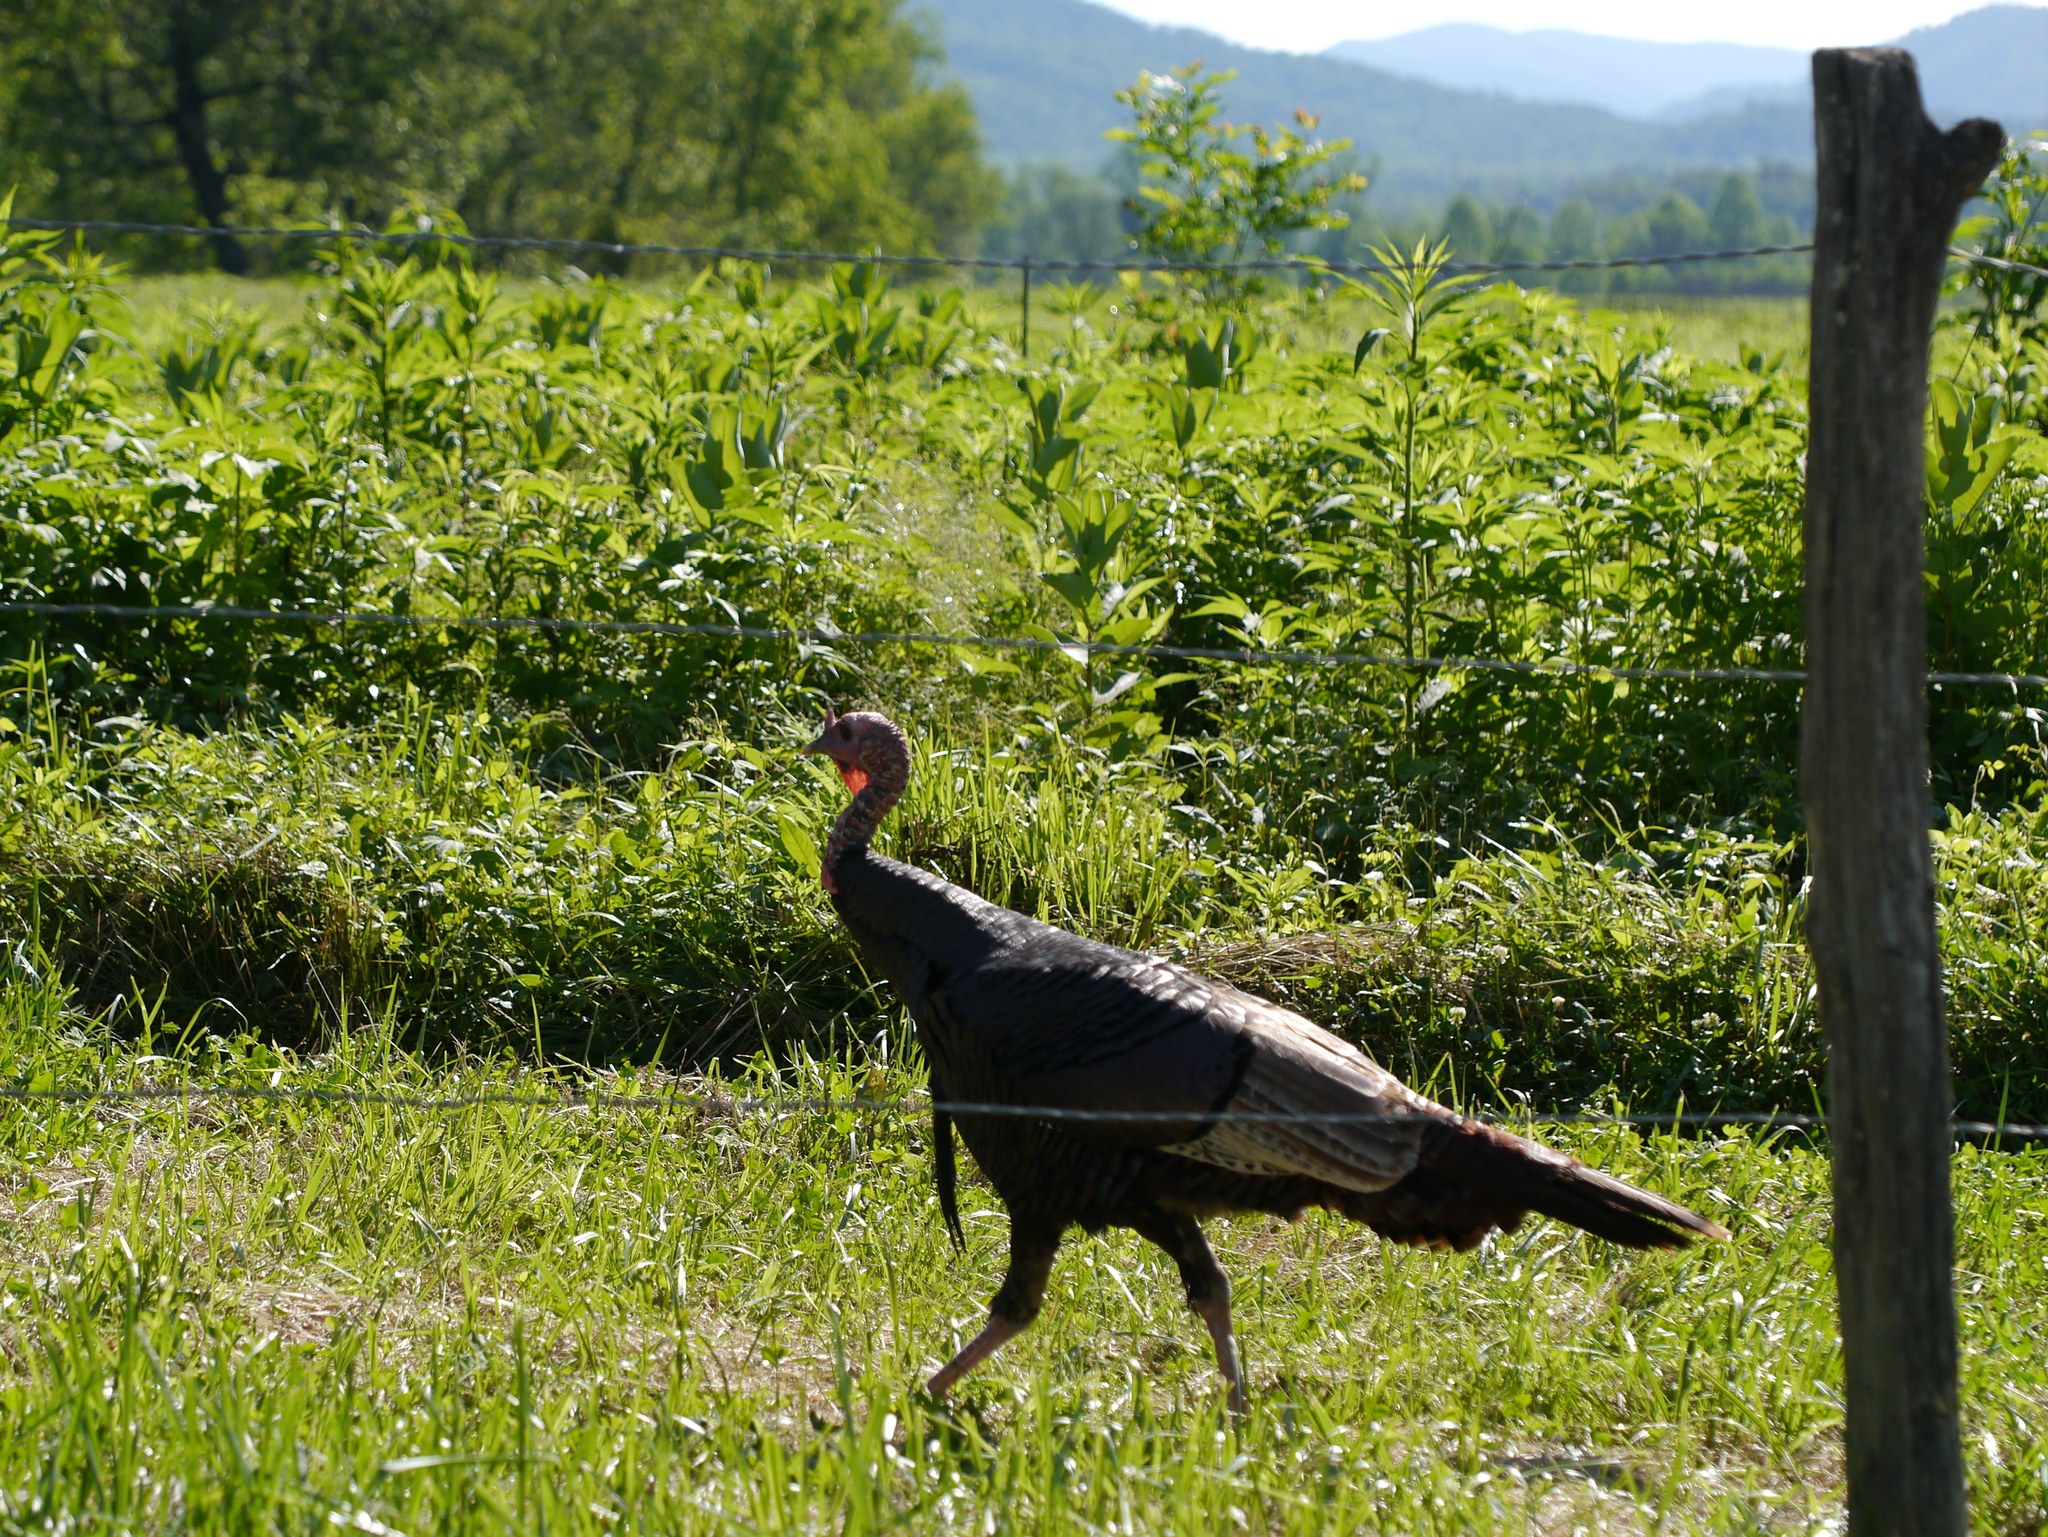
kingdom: Animalia
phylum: Chordata
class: Aves
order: Galliformes
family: Phasianidae
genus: Meleagris
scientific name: Meleagris gallopavo
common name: Wild turkey
